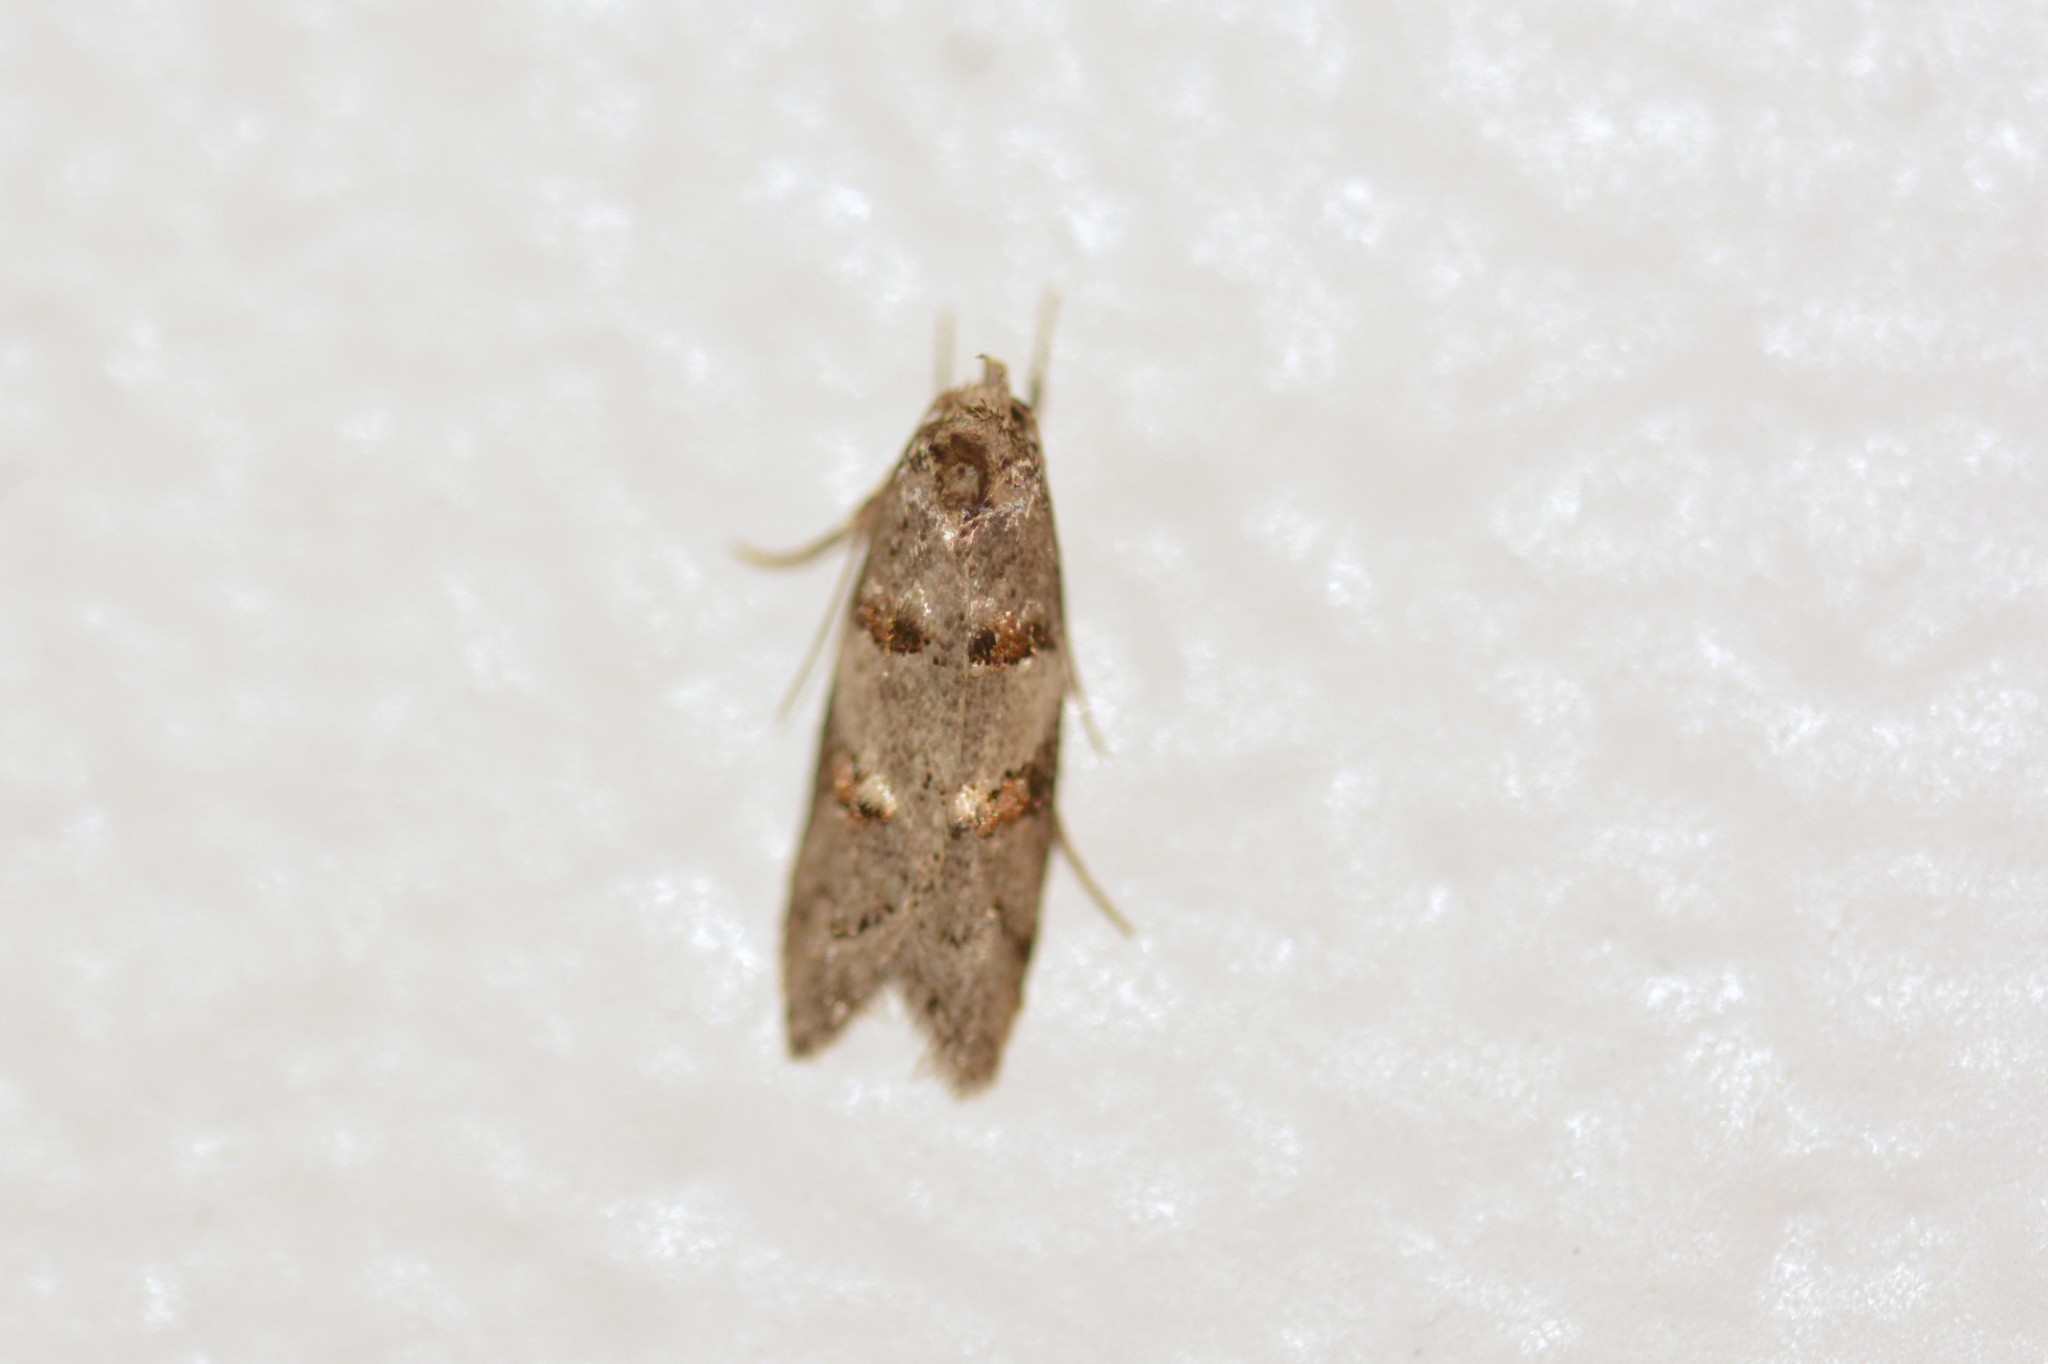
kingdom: Animalia
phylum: Arthropoda
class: Insecta
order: Lepidoptera
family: Oecophoridae
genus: Trachypepla
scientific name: Trachypepla contritella
